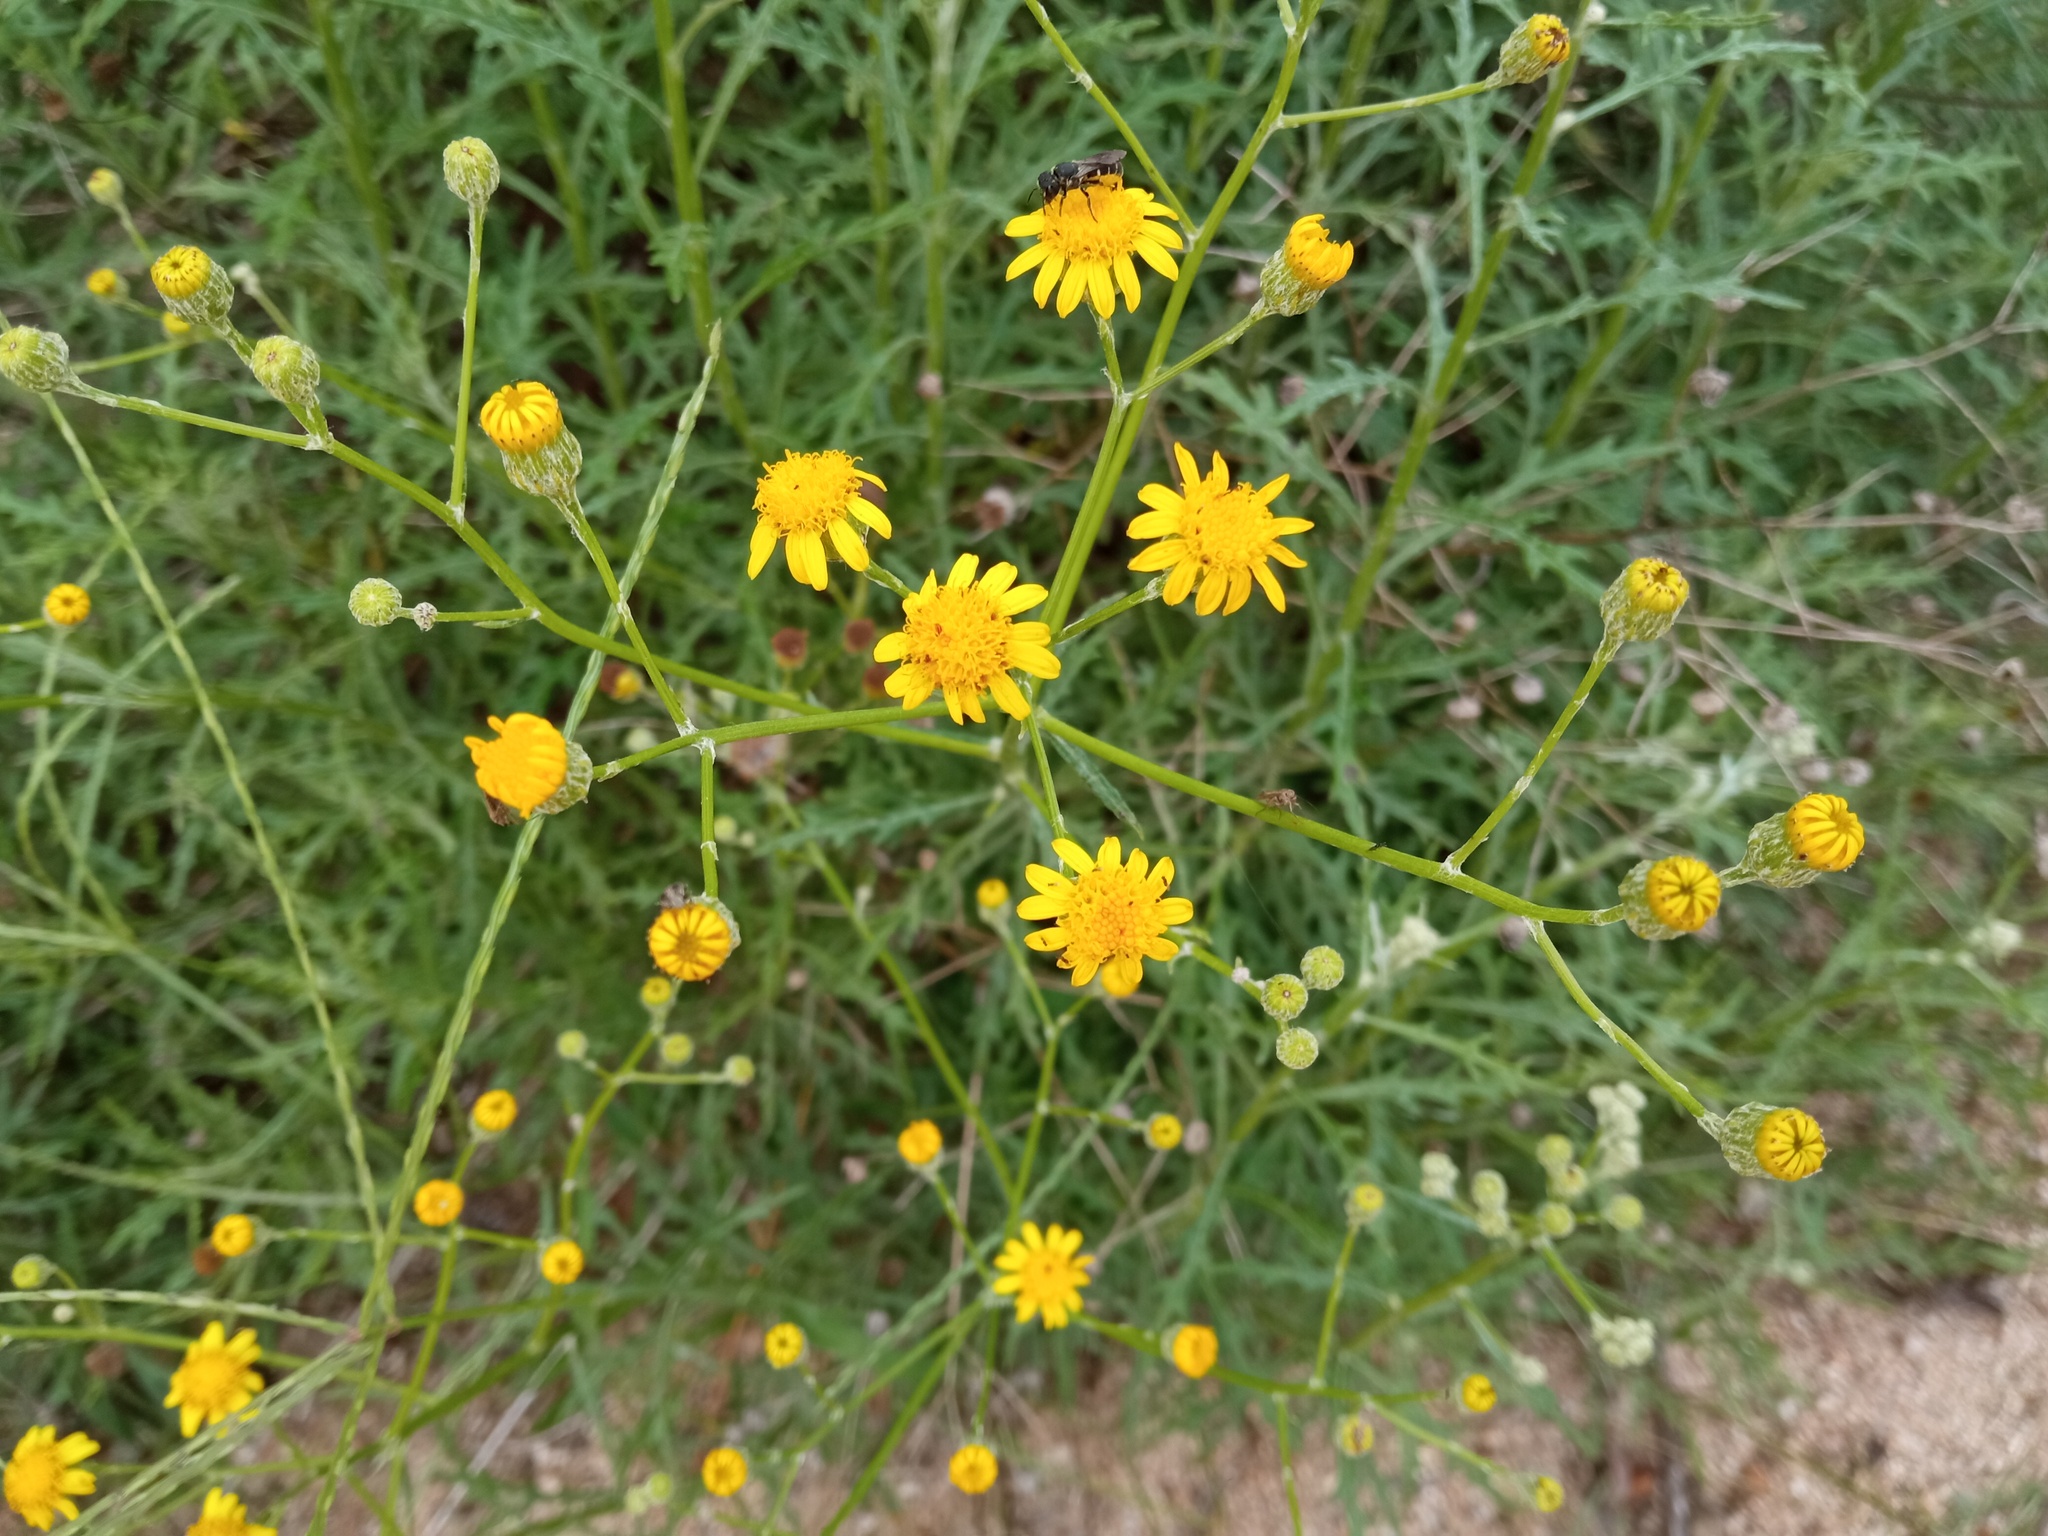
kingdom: Plantae
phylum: Tracheophyta
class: Magnoliopsida
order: Asterales
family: Asteraceae
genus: Senecio
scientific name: Senecio pterophorus
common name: Shoddy ragwort
